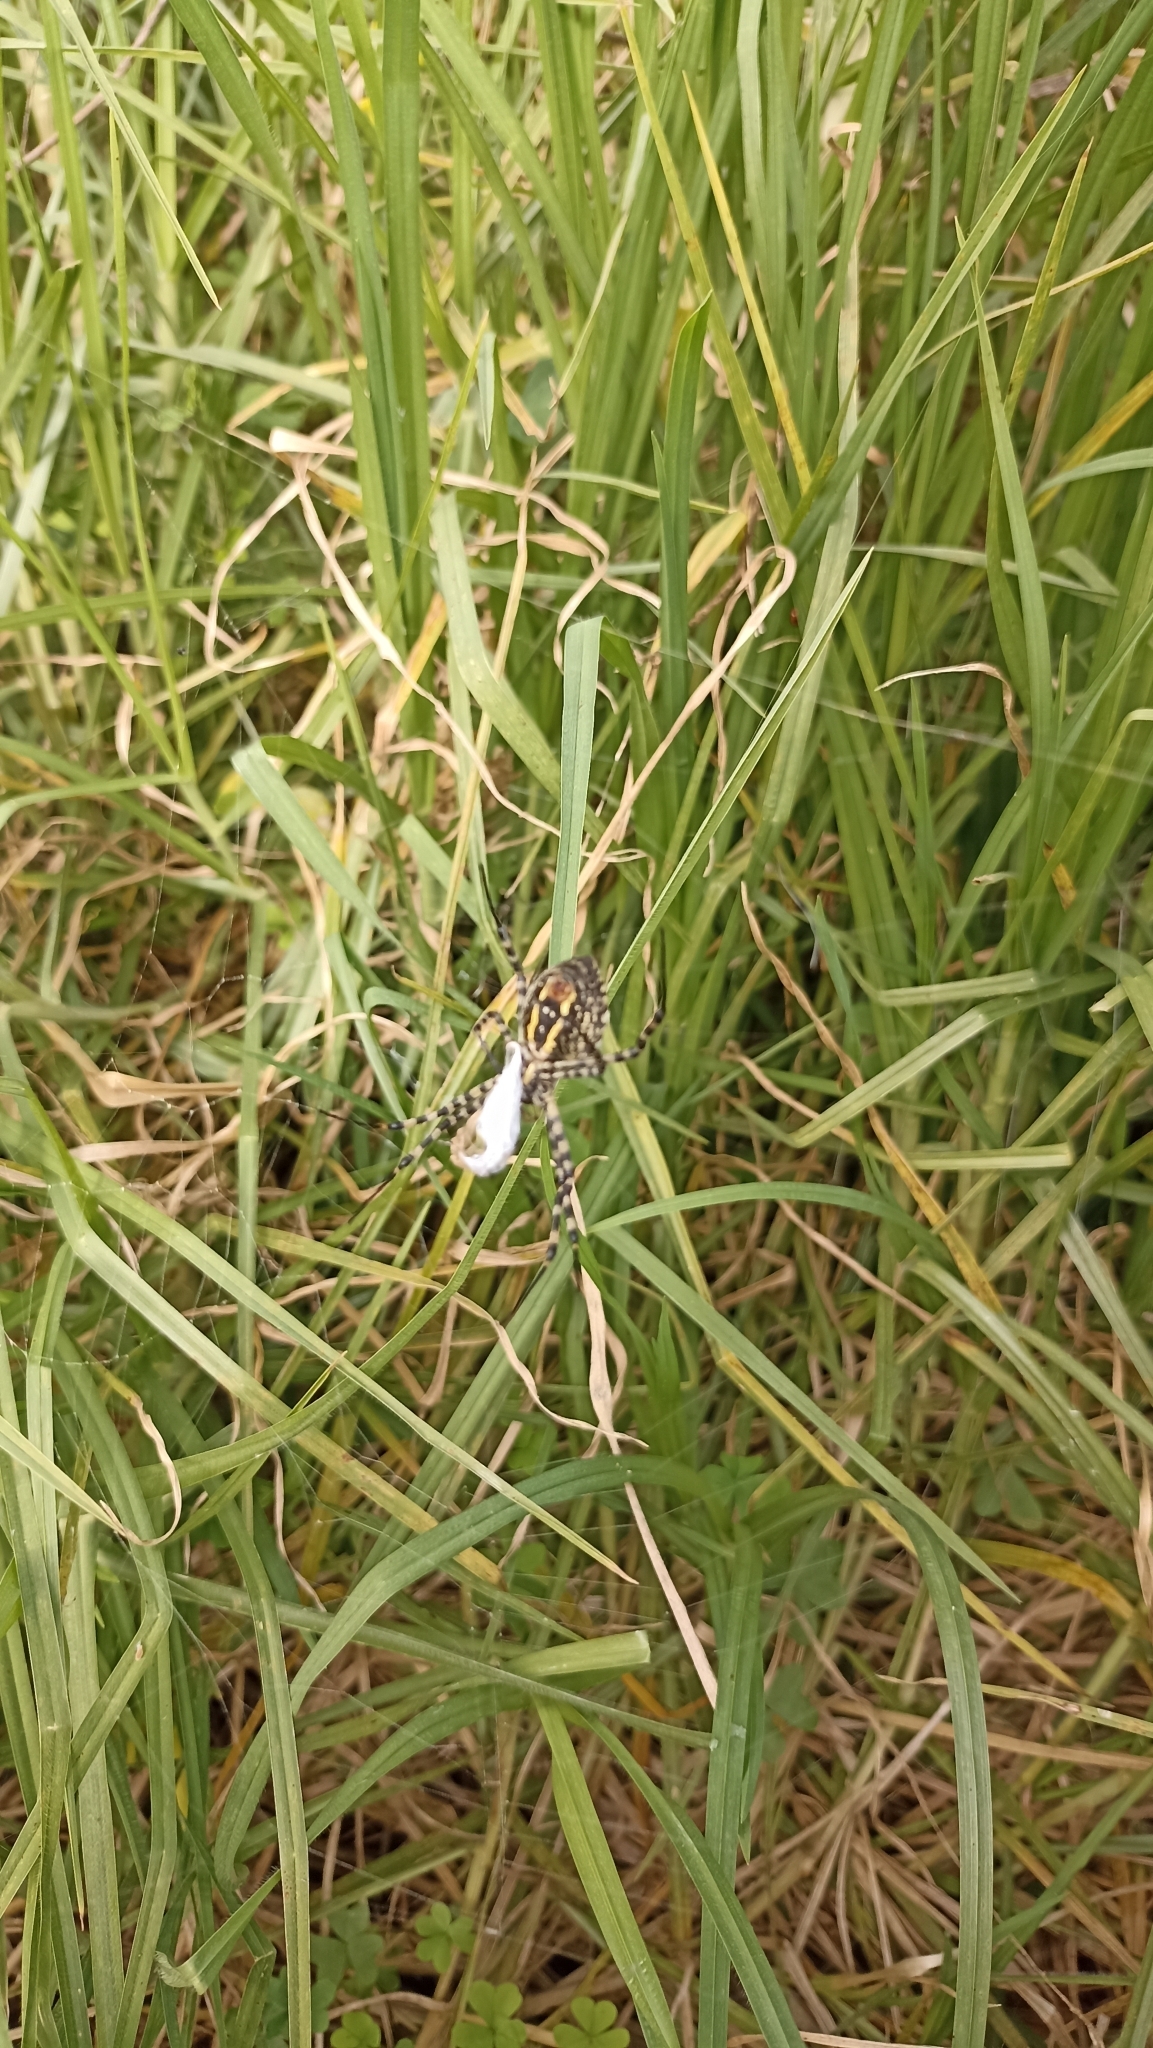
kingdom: Animalia
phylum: Arthropoda
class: Arachnida
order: Araneae
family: Araneidae
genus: Argiope
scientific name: Argiope trifasciata
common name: Banded garden spider
